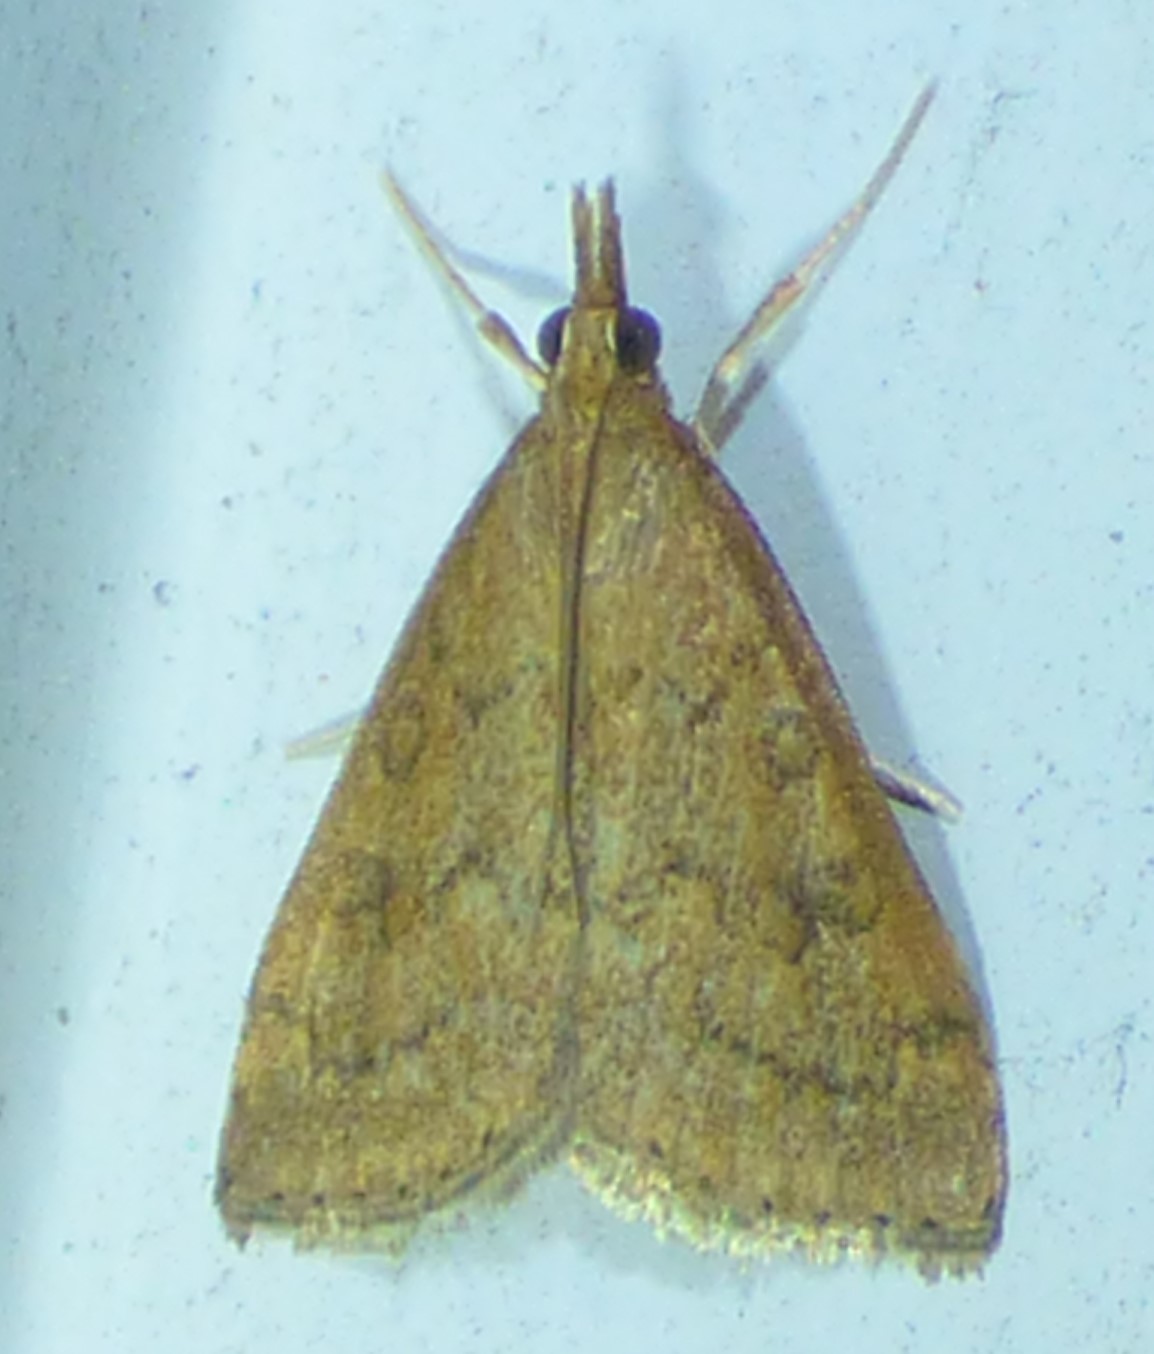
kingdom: Animalia
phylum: Arthropoda
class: Insecta
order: Lepidoptera
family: Crambidae
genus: Udea
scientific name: Udea rubigalis
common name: Celery leaftier moth
